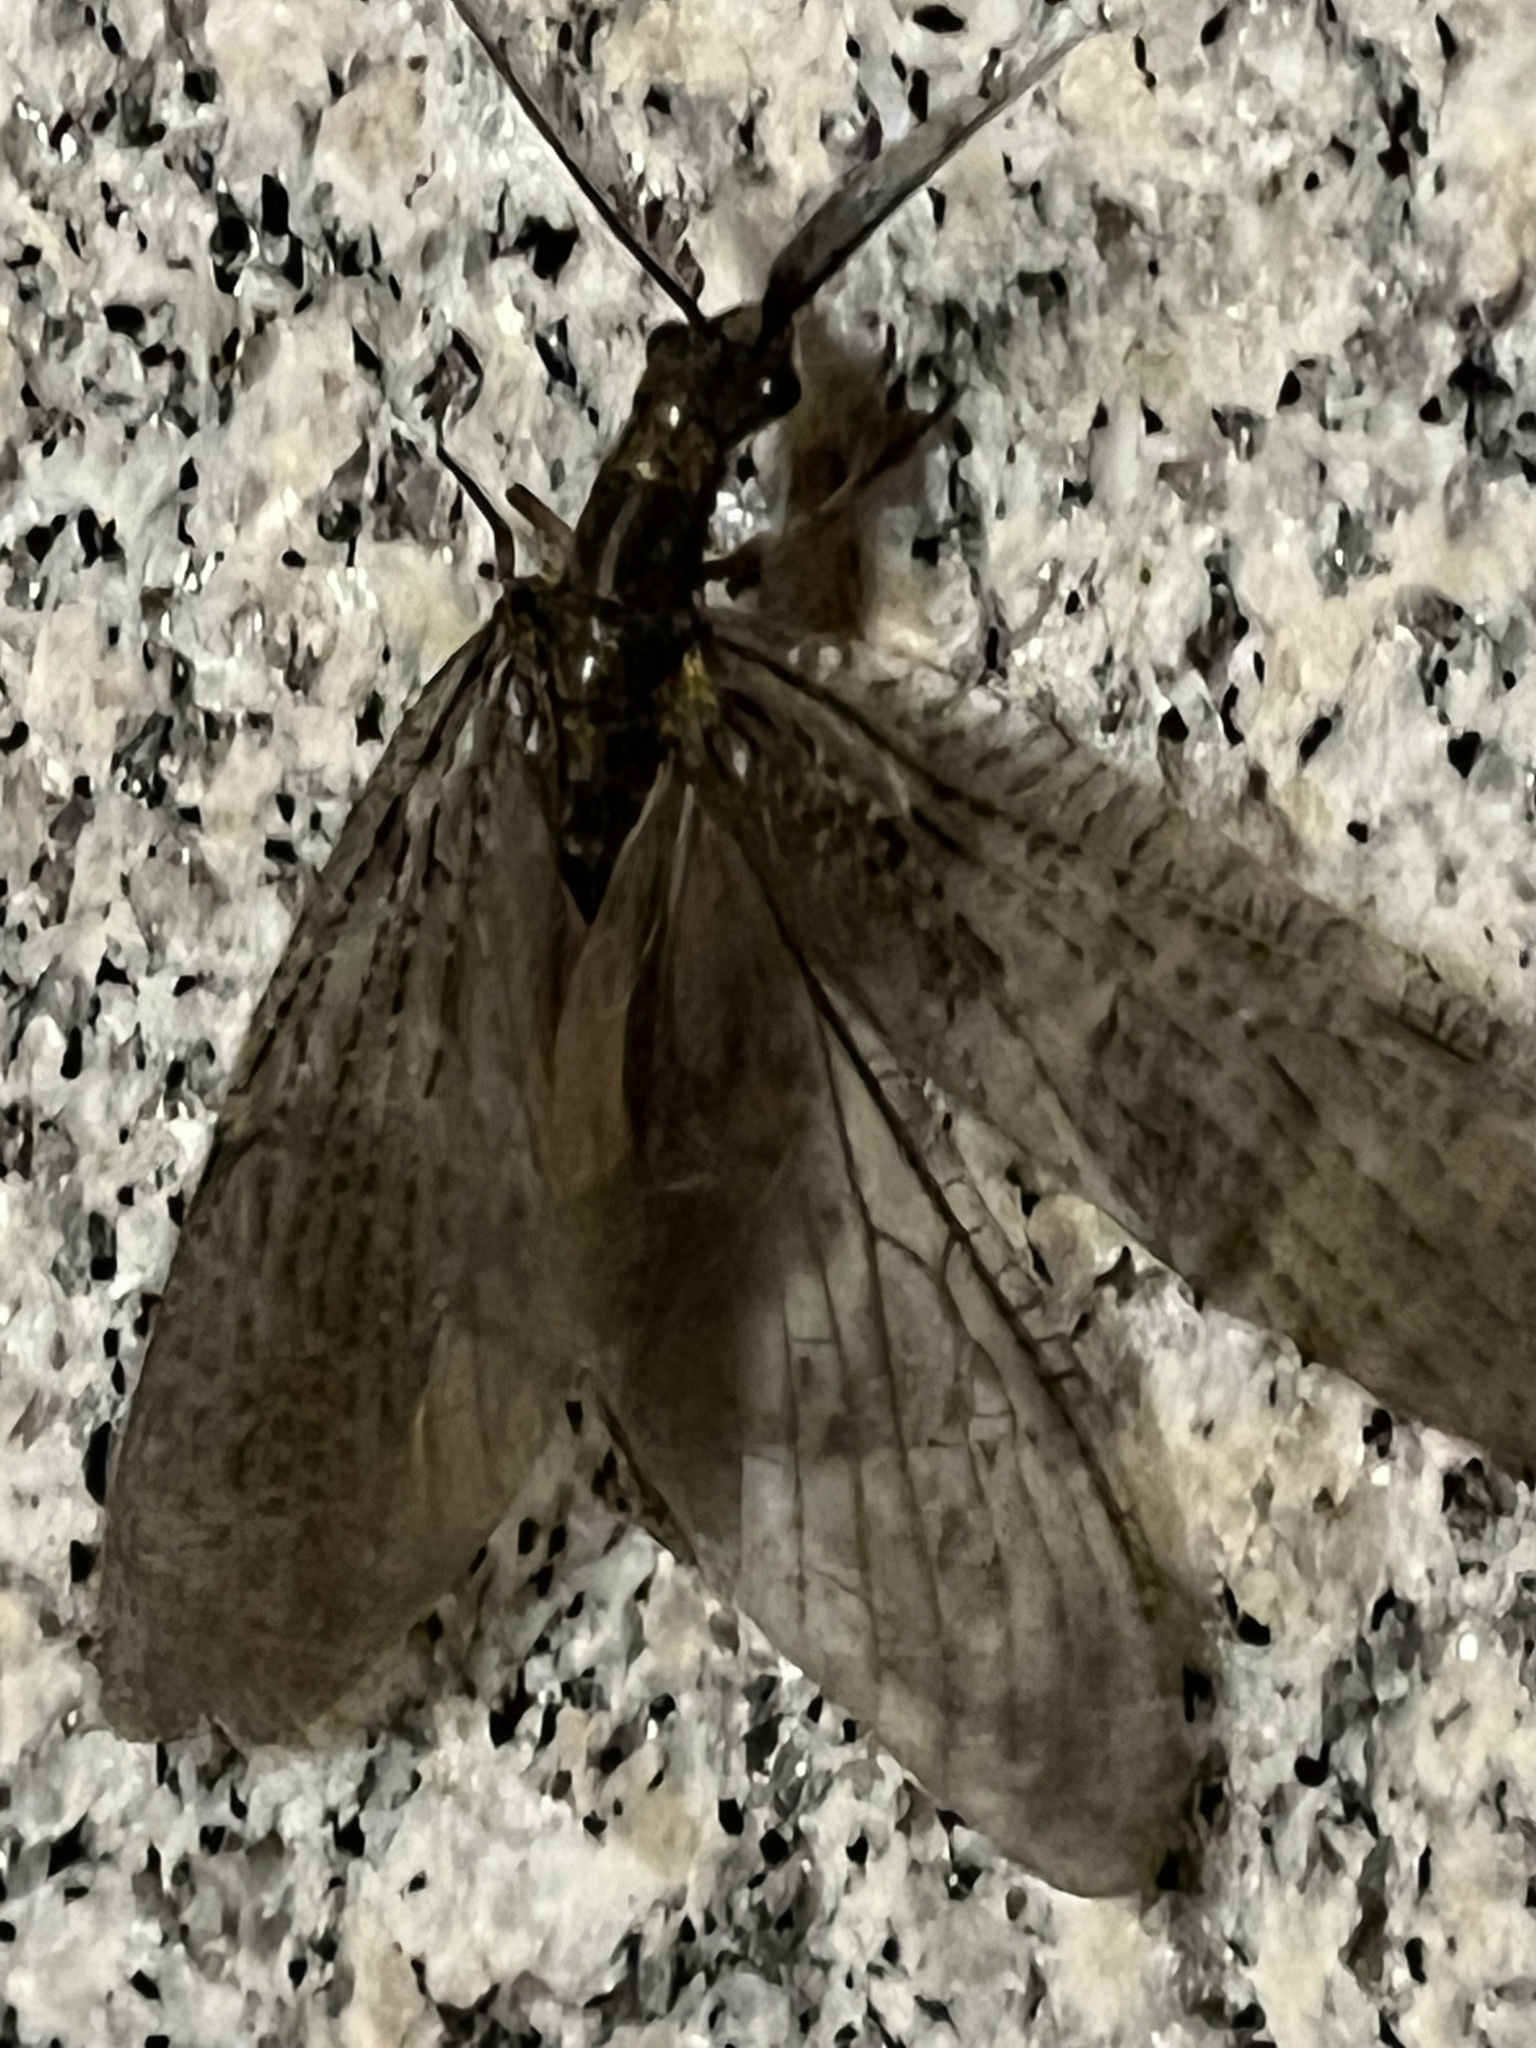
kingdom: Animalia
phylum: Arthropoda
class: Insecta
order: Megaloptera
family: Corydalidae
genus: Chauliodes
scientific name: Chauliodes pectinicornis
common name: Summer fishfly
